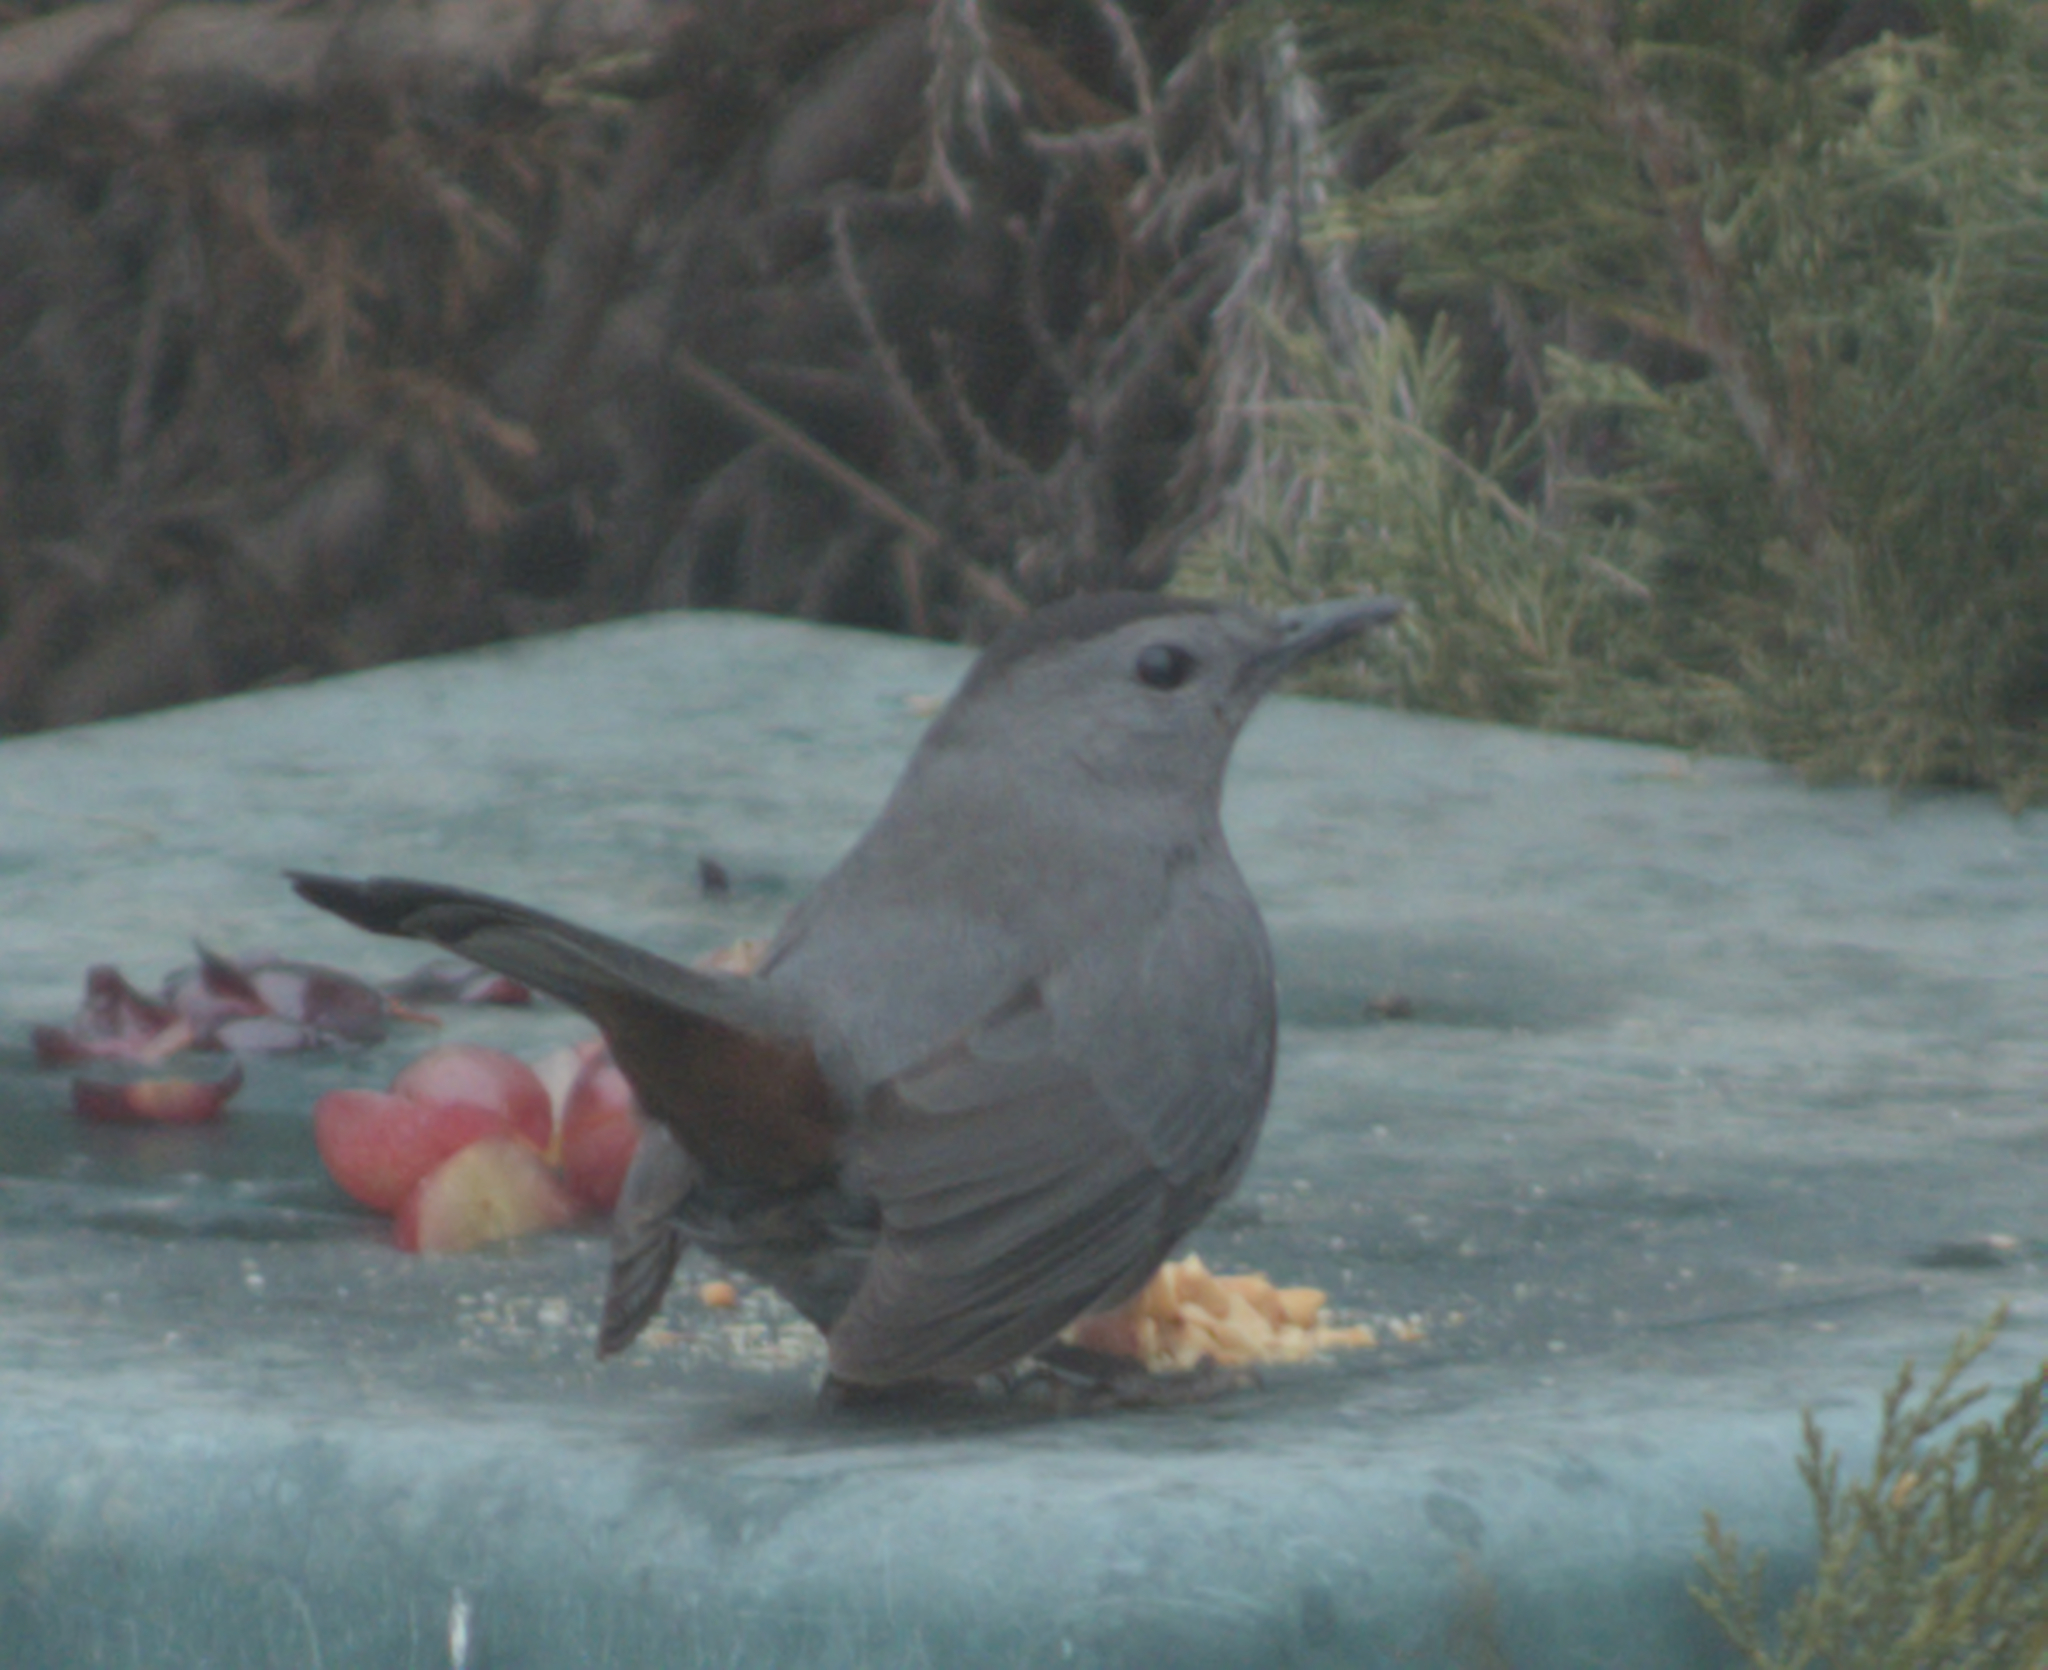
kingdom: Animalia
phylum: Chordata
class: Aves
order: Passeriformes
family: Mimidae
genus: Dumetella
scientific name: Dumetella carolinensis
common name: Gray catbird
